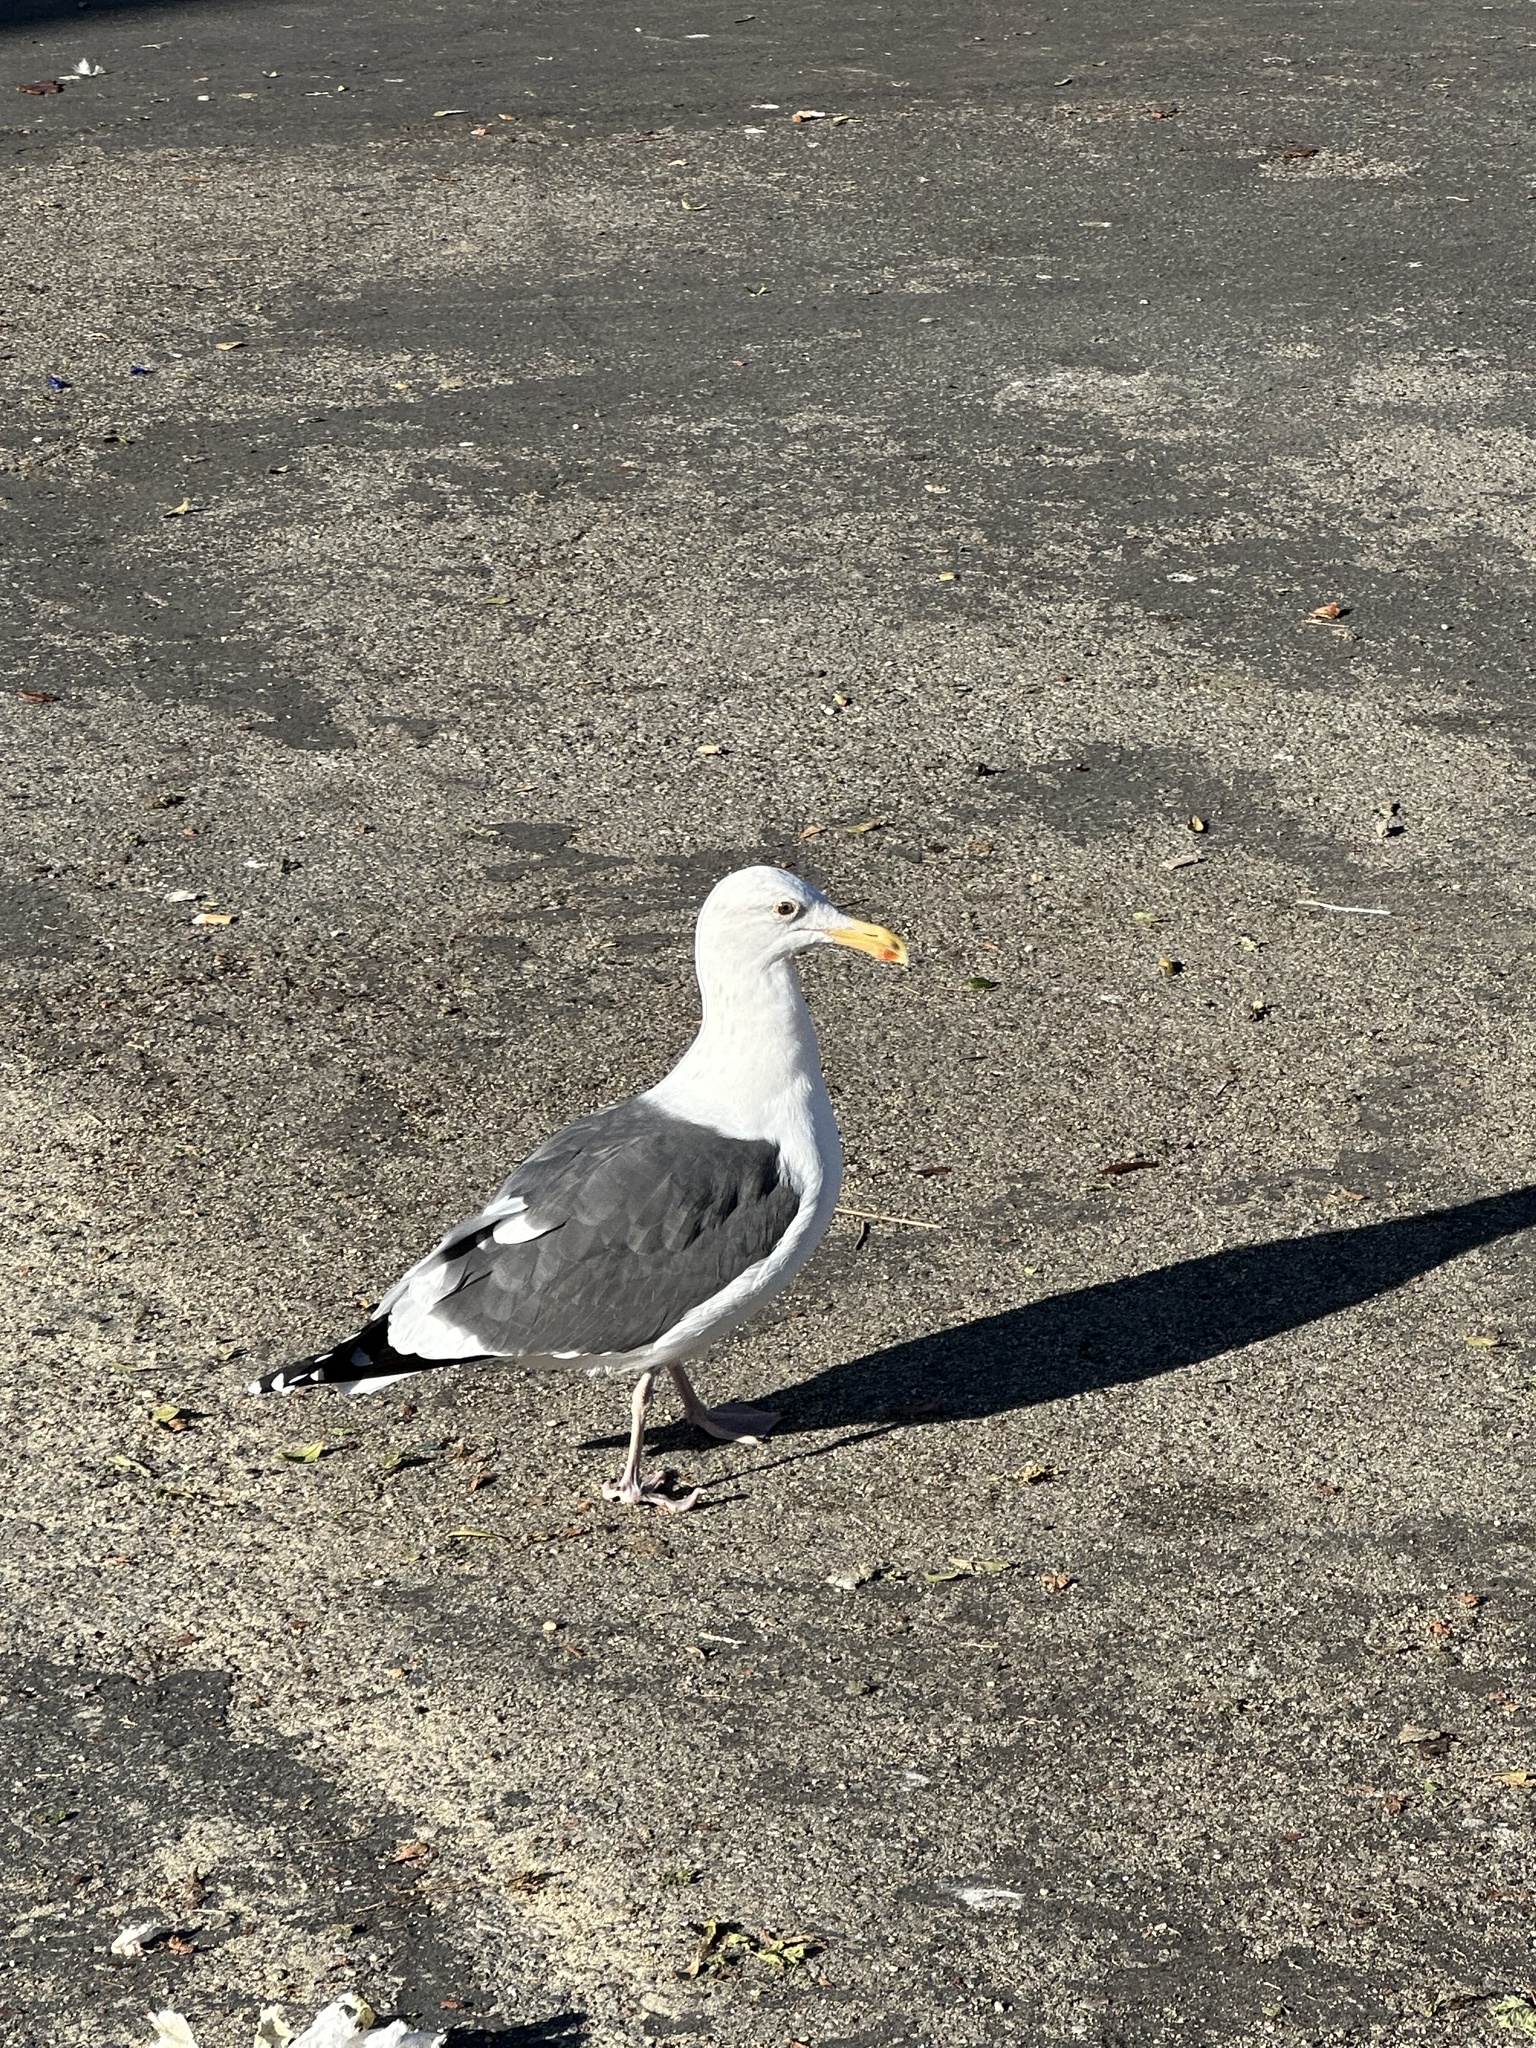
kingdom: Animalia
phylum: Chordata
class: Aves
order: Charadriiformes
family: Laridae
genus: Larus
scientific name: Larus occidentalis
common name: Western gull
